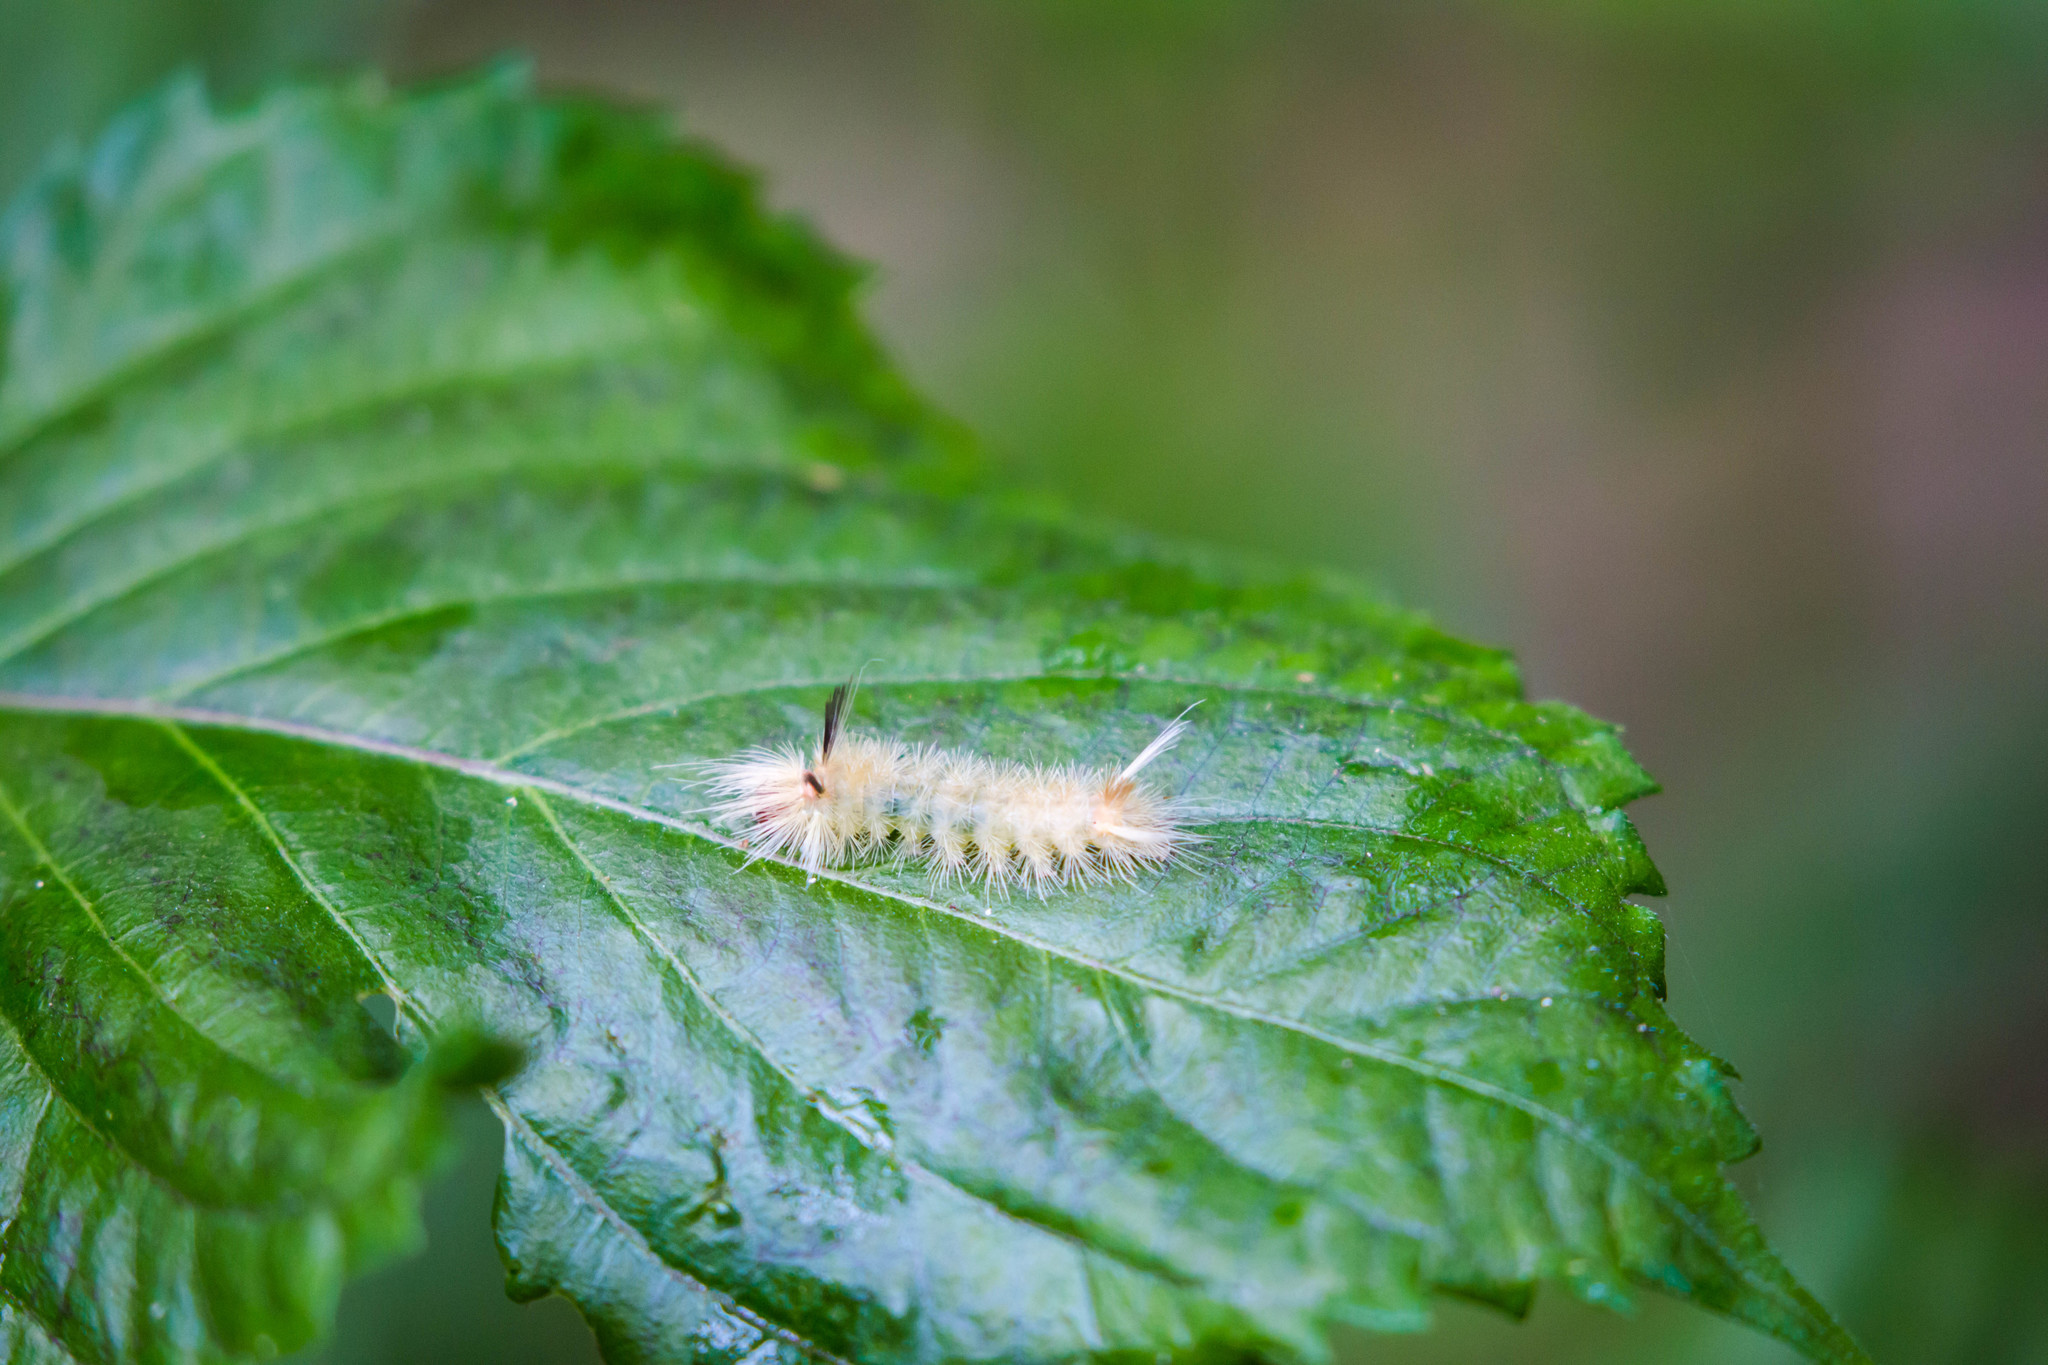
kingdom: Animalia
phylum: Arthropoda
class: Insecta
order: Lepidoptera
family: Erebidae
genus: Halysidota
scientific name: Halysidota tessellaris
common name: Banded tussock moth
